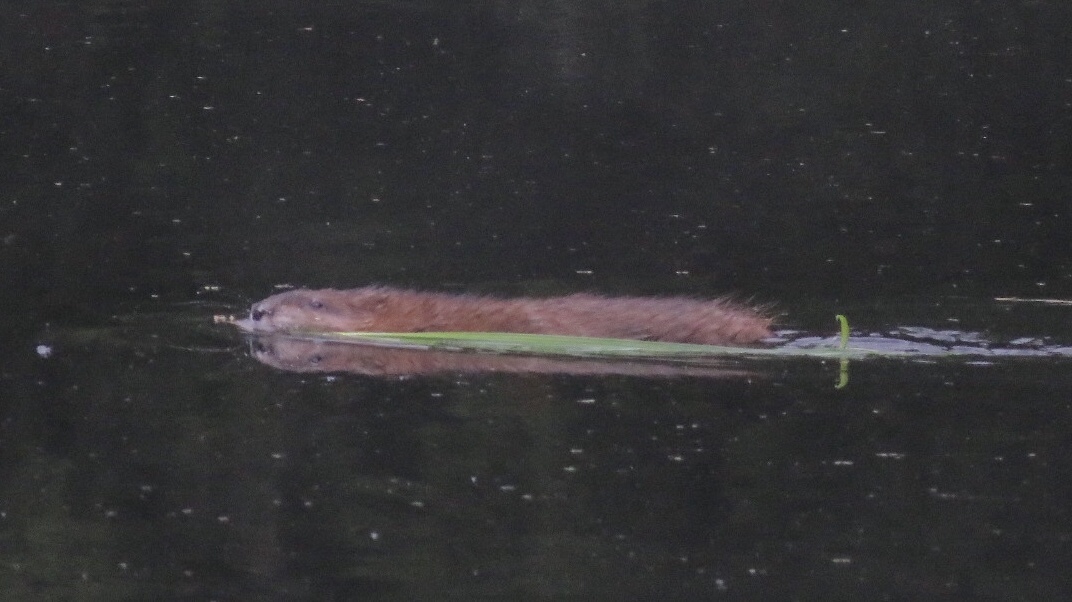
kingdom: Animalia
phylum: Chordata
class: Mammalia
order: Rodentia
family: Cricetidae
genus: Ondatra
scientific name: Ondatra zibethicus
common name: Muskrat
